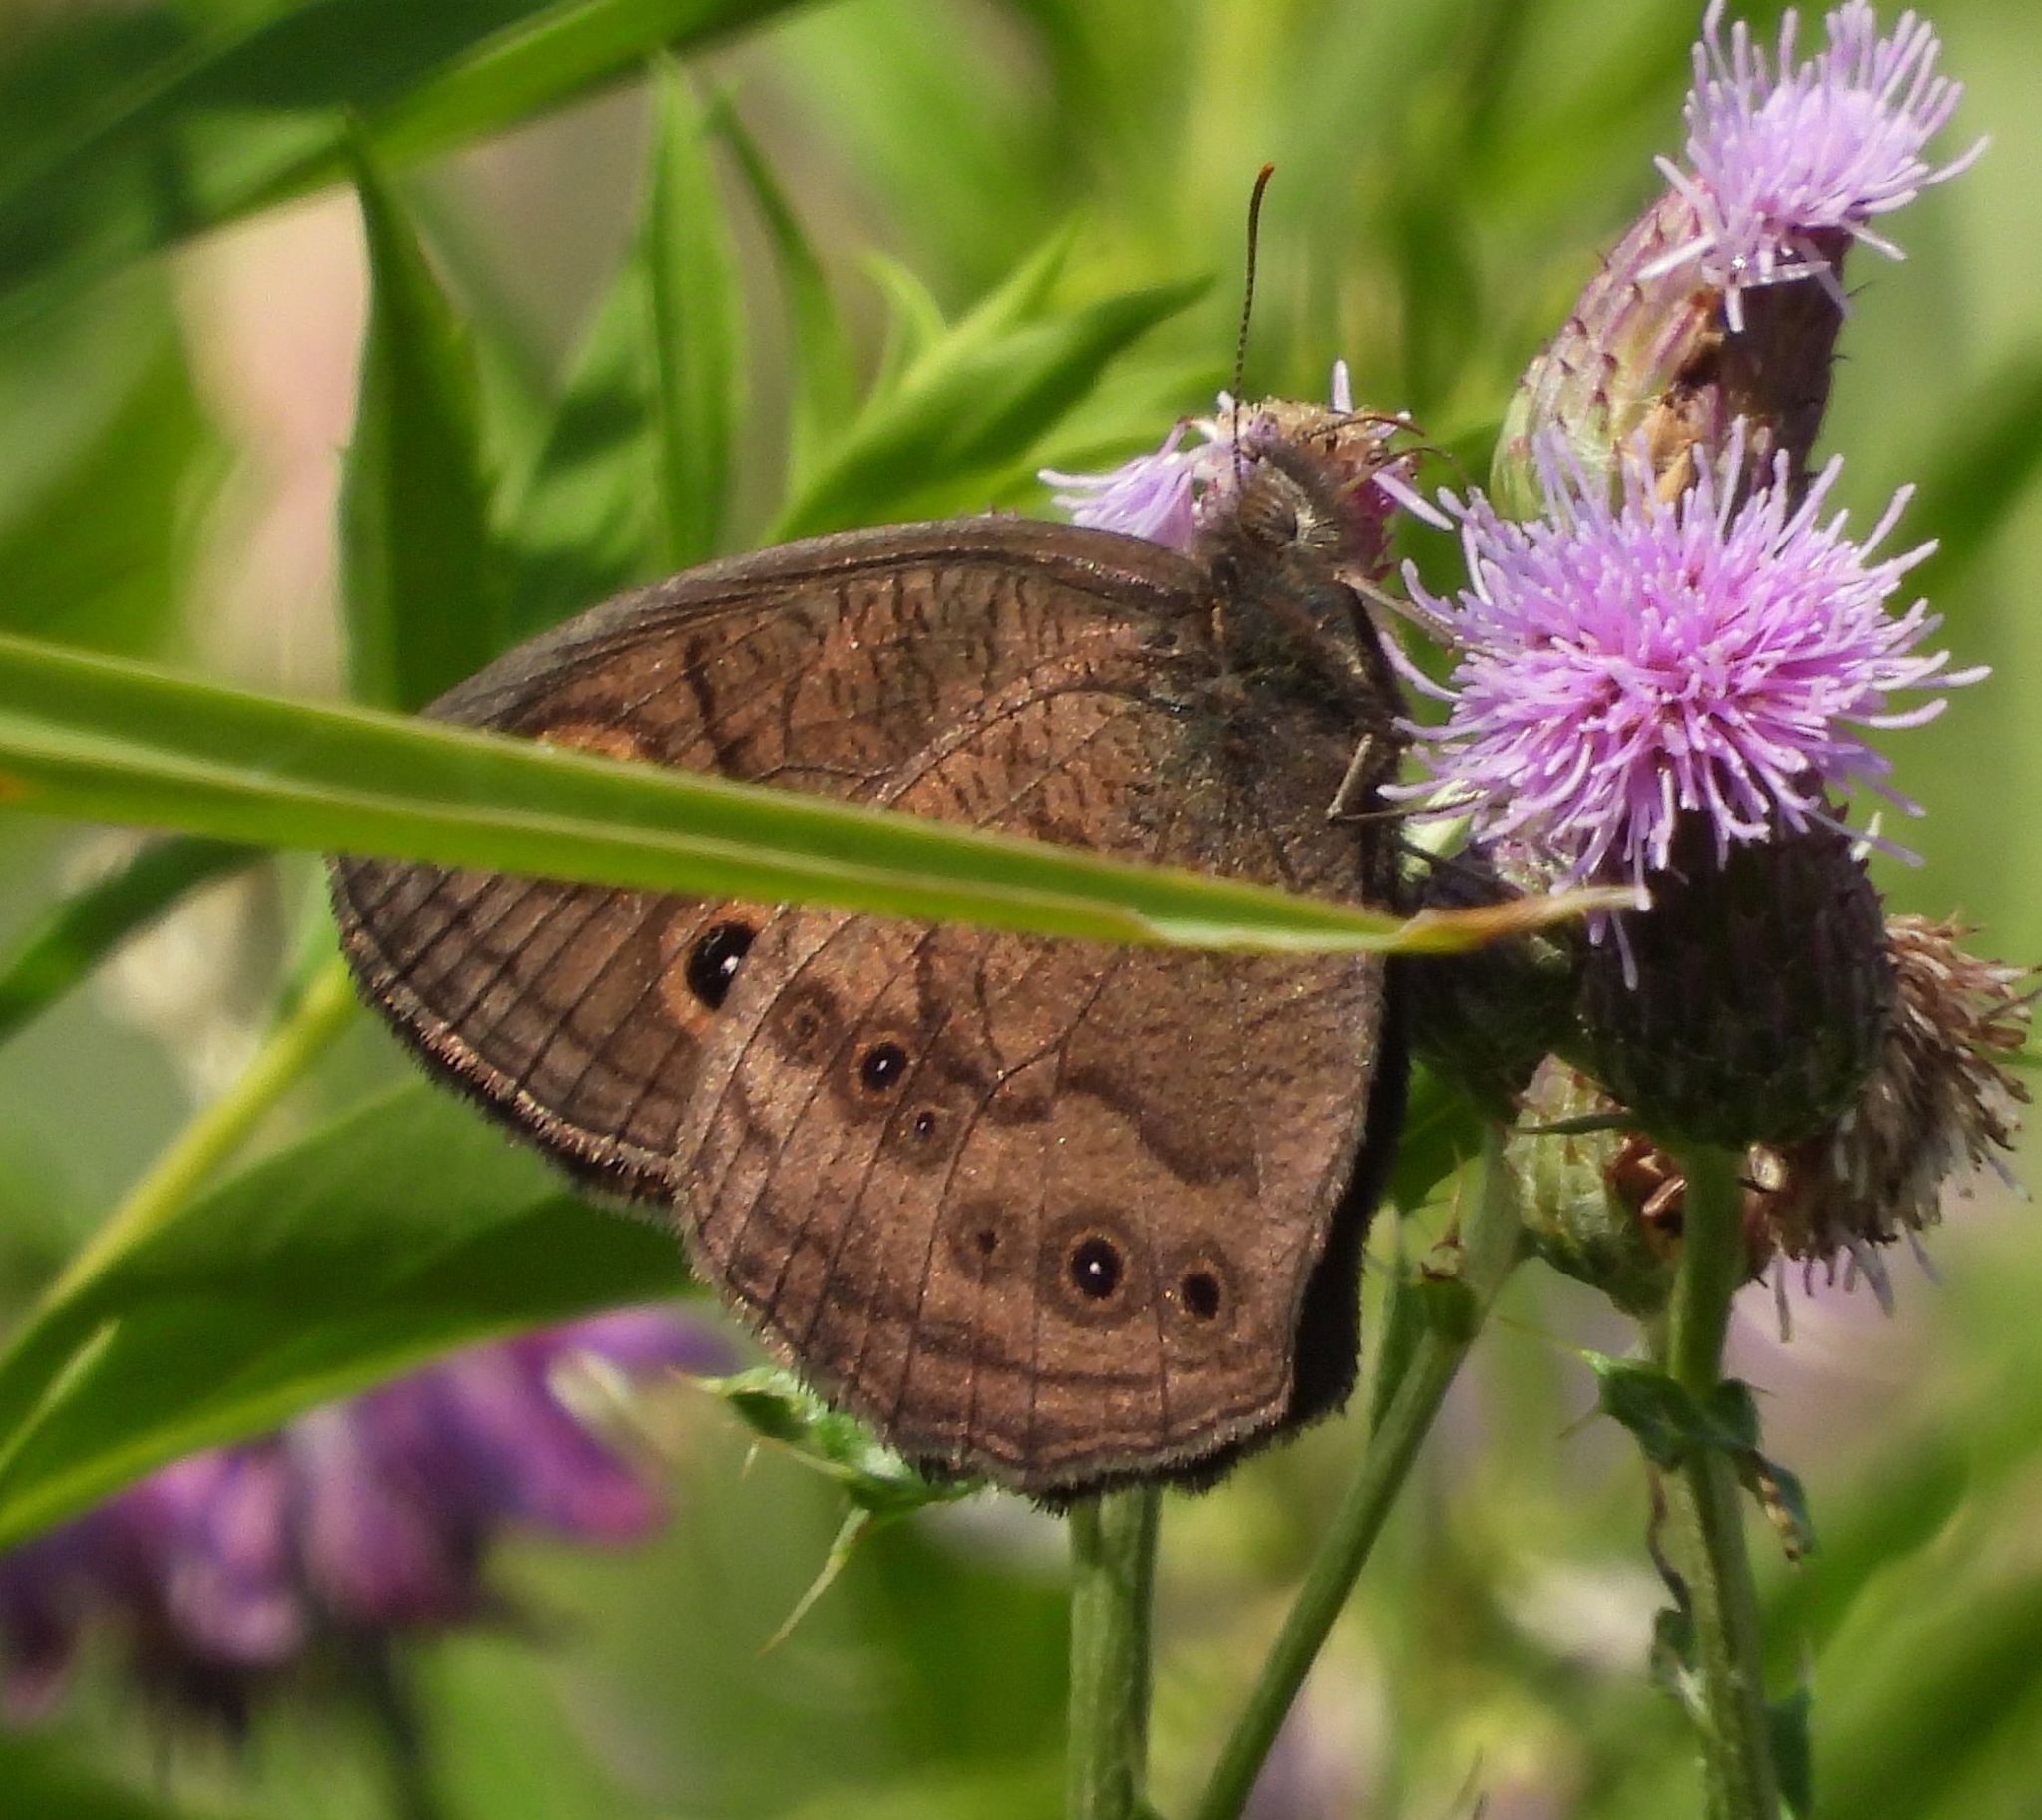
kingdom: Animalia
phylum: Arthropoda
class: Insecta
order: Lepidoptera
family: Nymphalidae
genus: Cercyonis
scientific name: Cercyonis pegala
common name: Common wood-nymph
